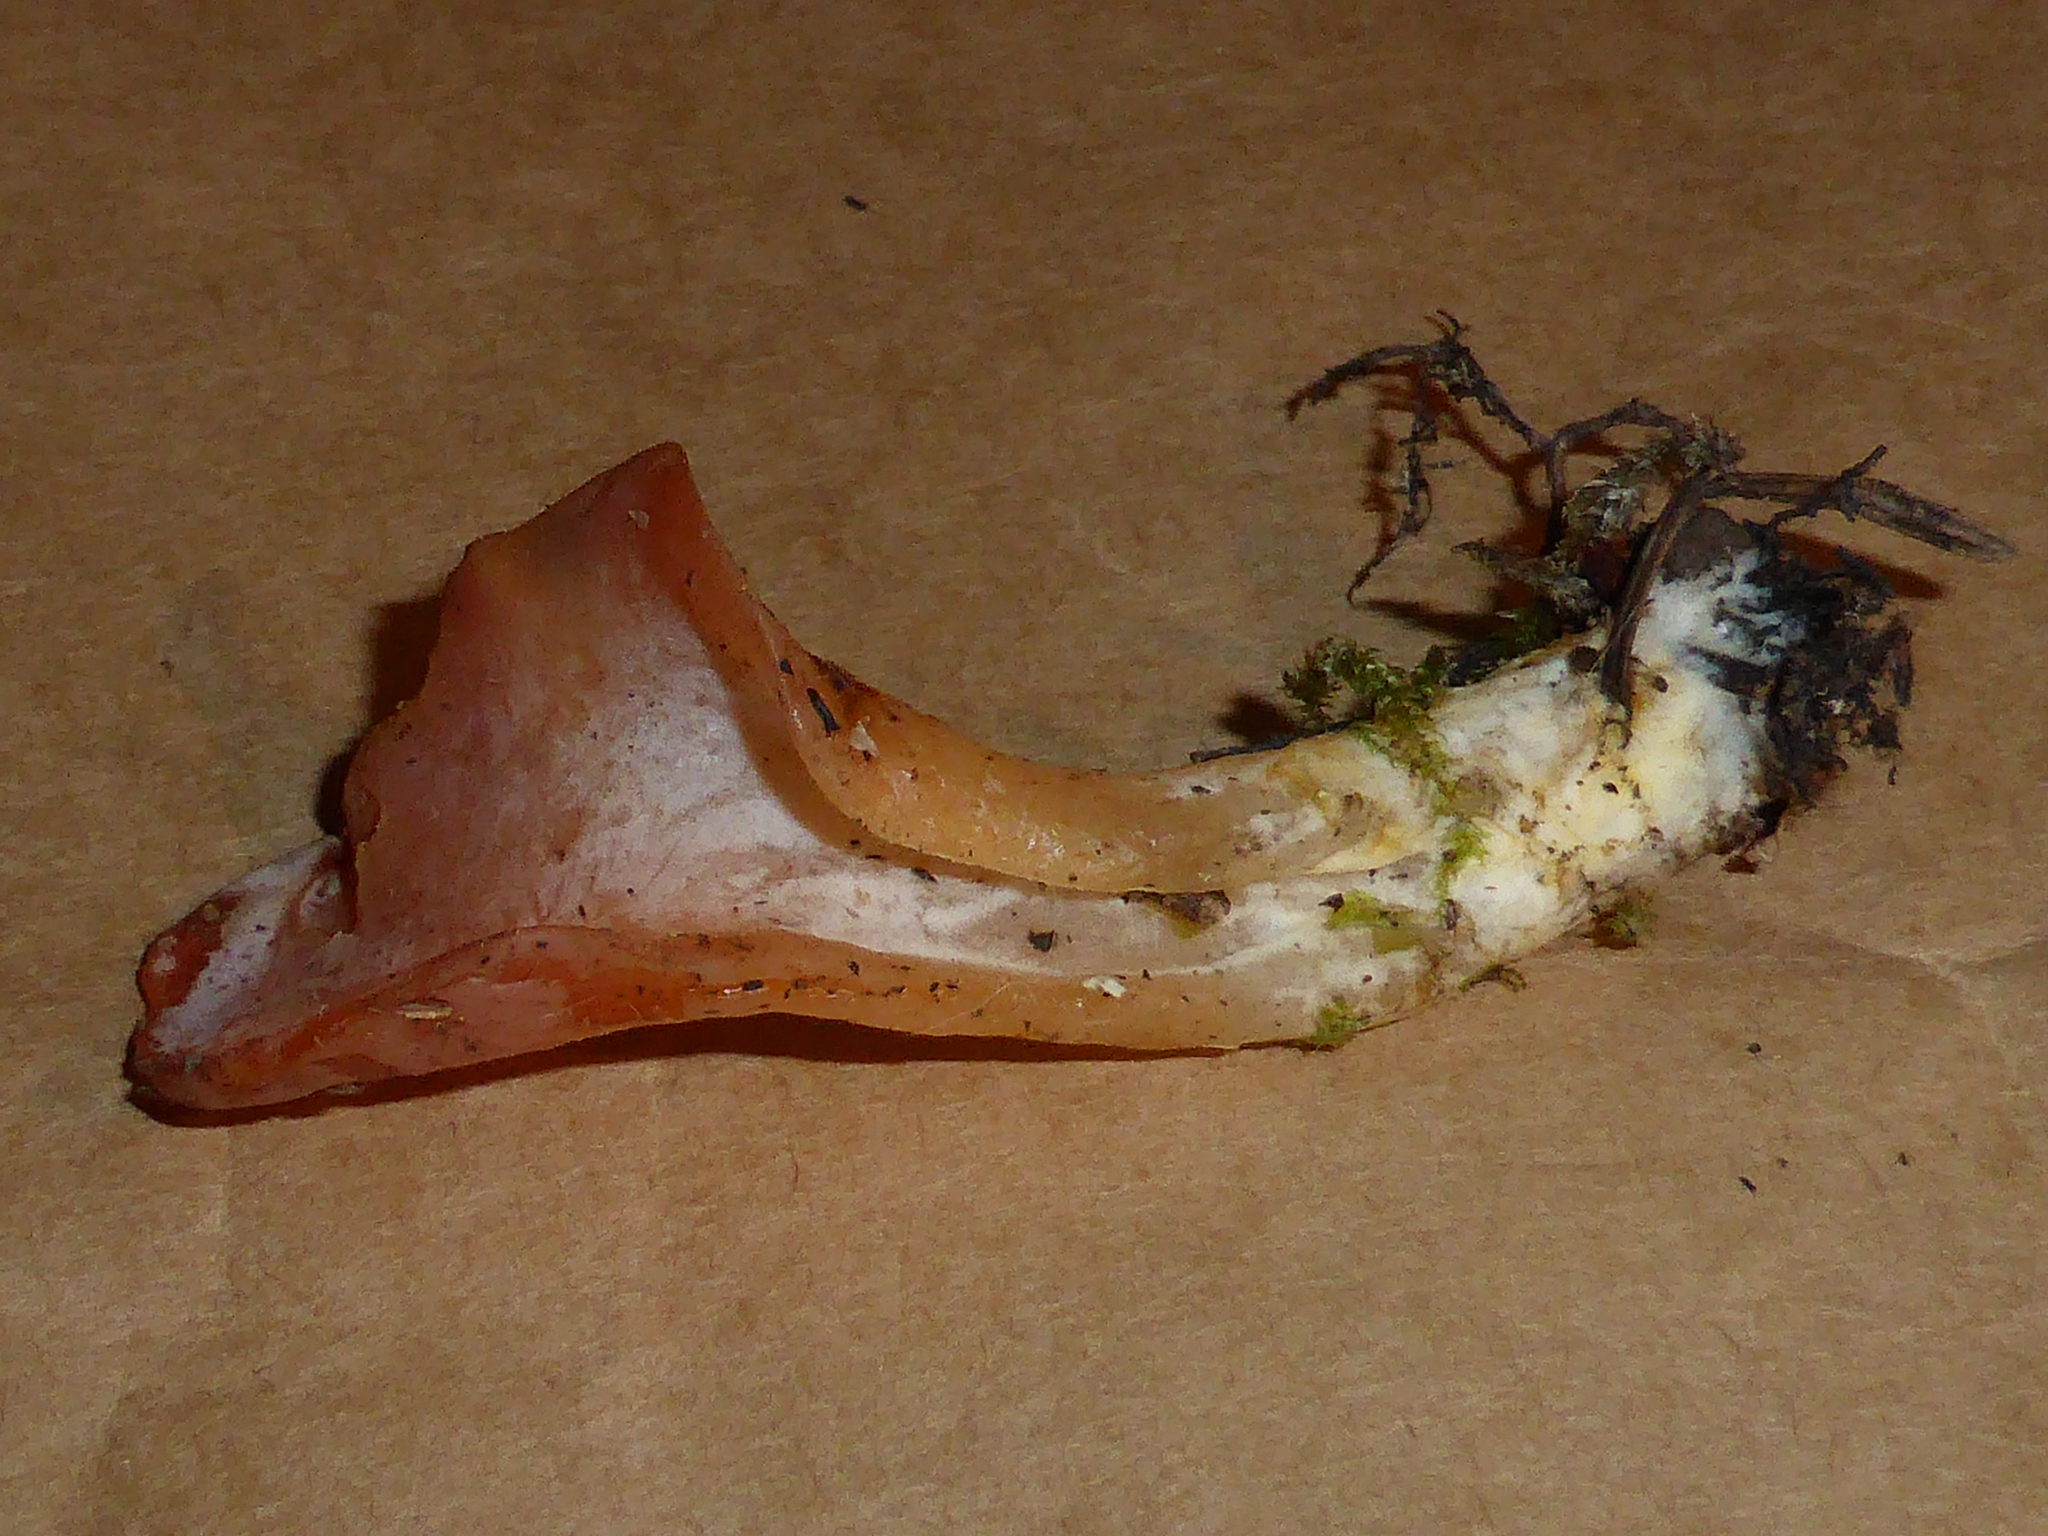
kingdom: Fungi
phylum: Basidiomycota
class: Agaricomycetes
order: Auriculariales
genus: Guepinia
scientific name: Guepinia helvelloides
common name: Salmon salad
